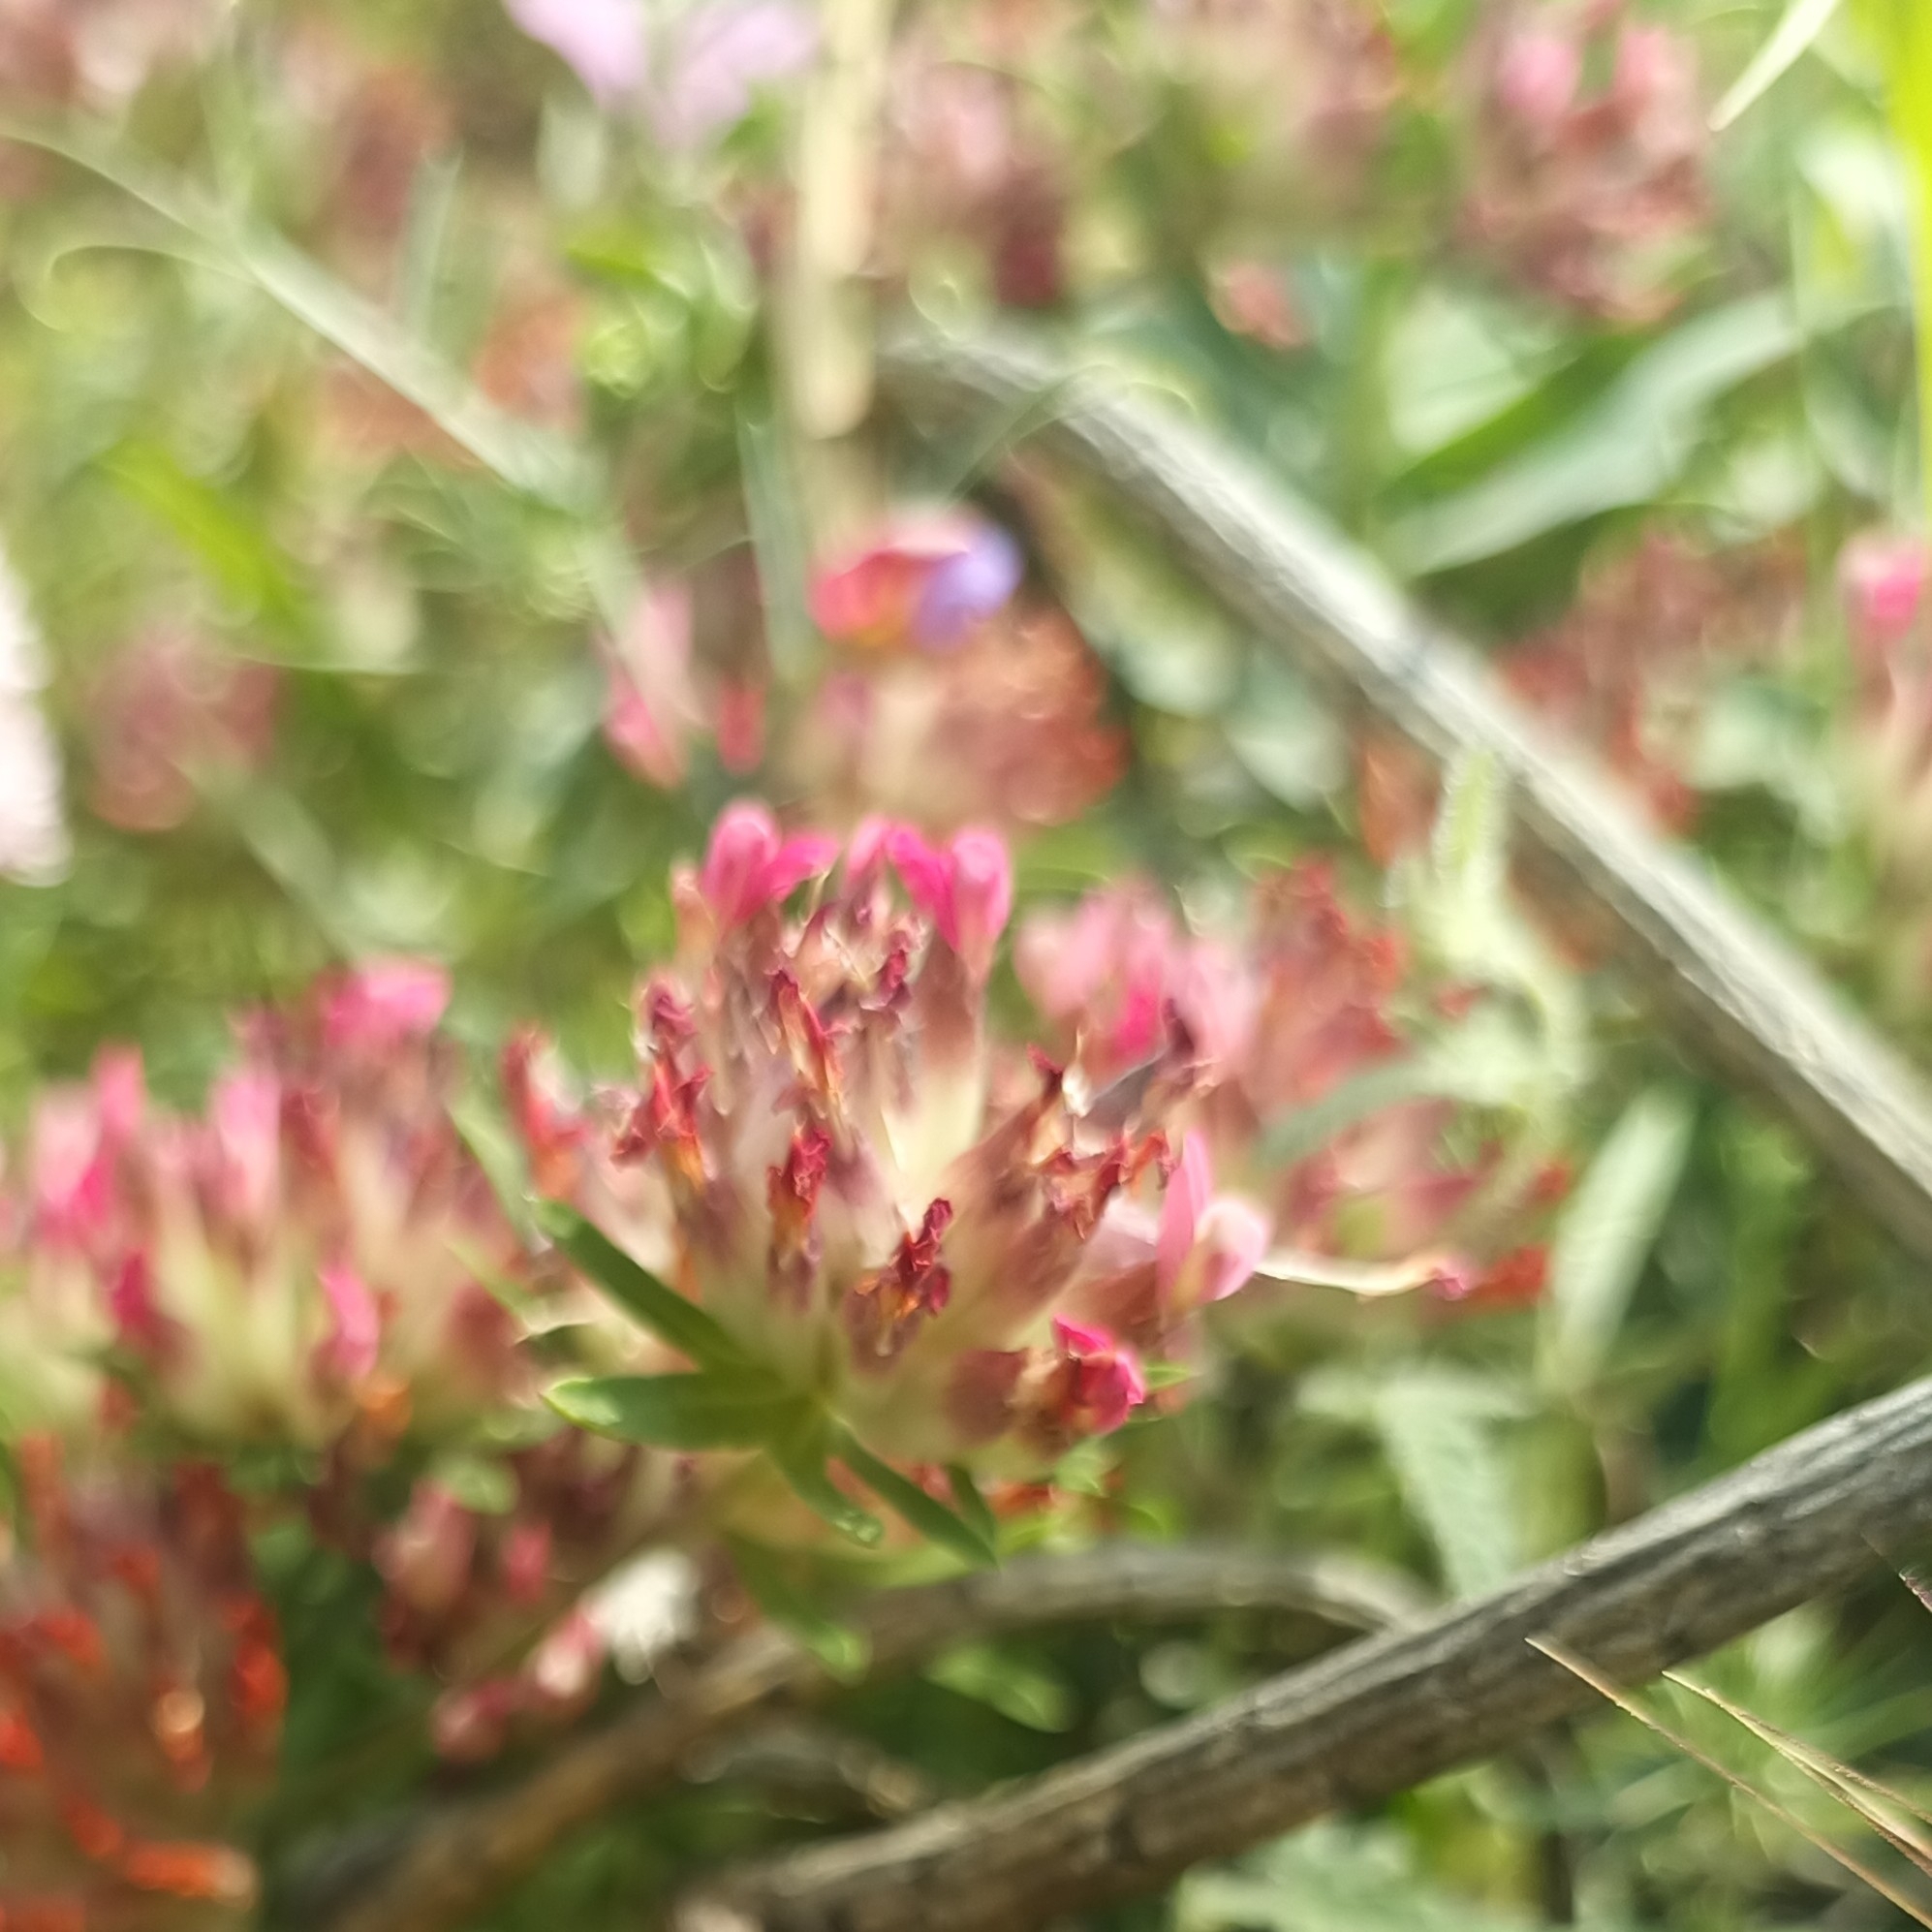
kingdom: Plantae
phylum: Tracheophyta
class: Magnoliopsida
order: Fabales
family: Fabaceae
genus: Anthyllis
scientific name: Anthyllis vulneraria
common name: Kidney vetch
